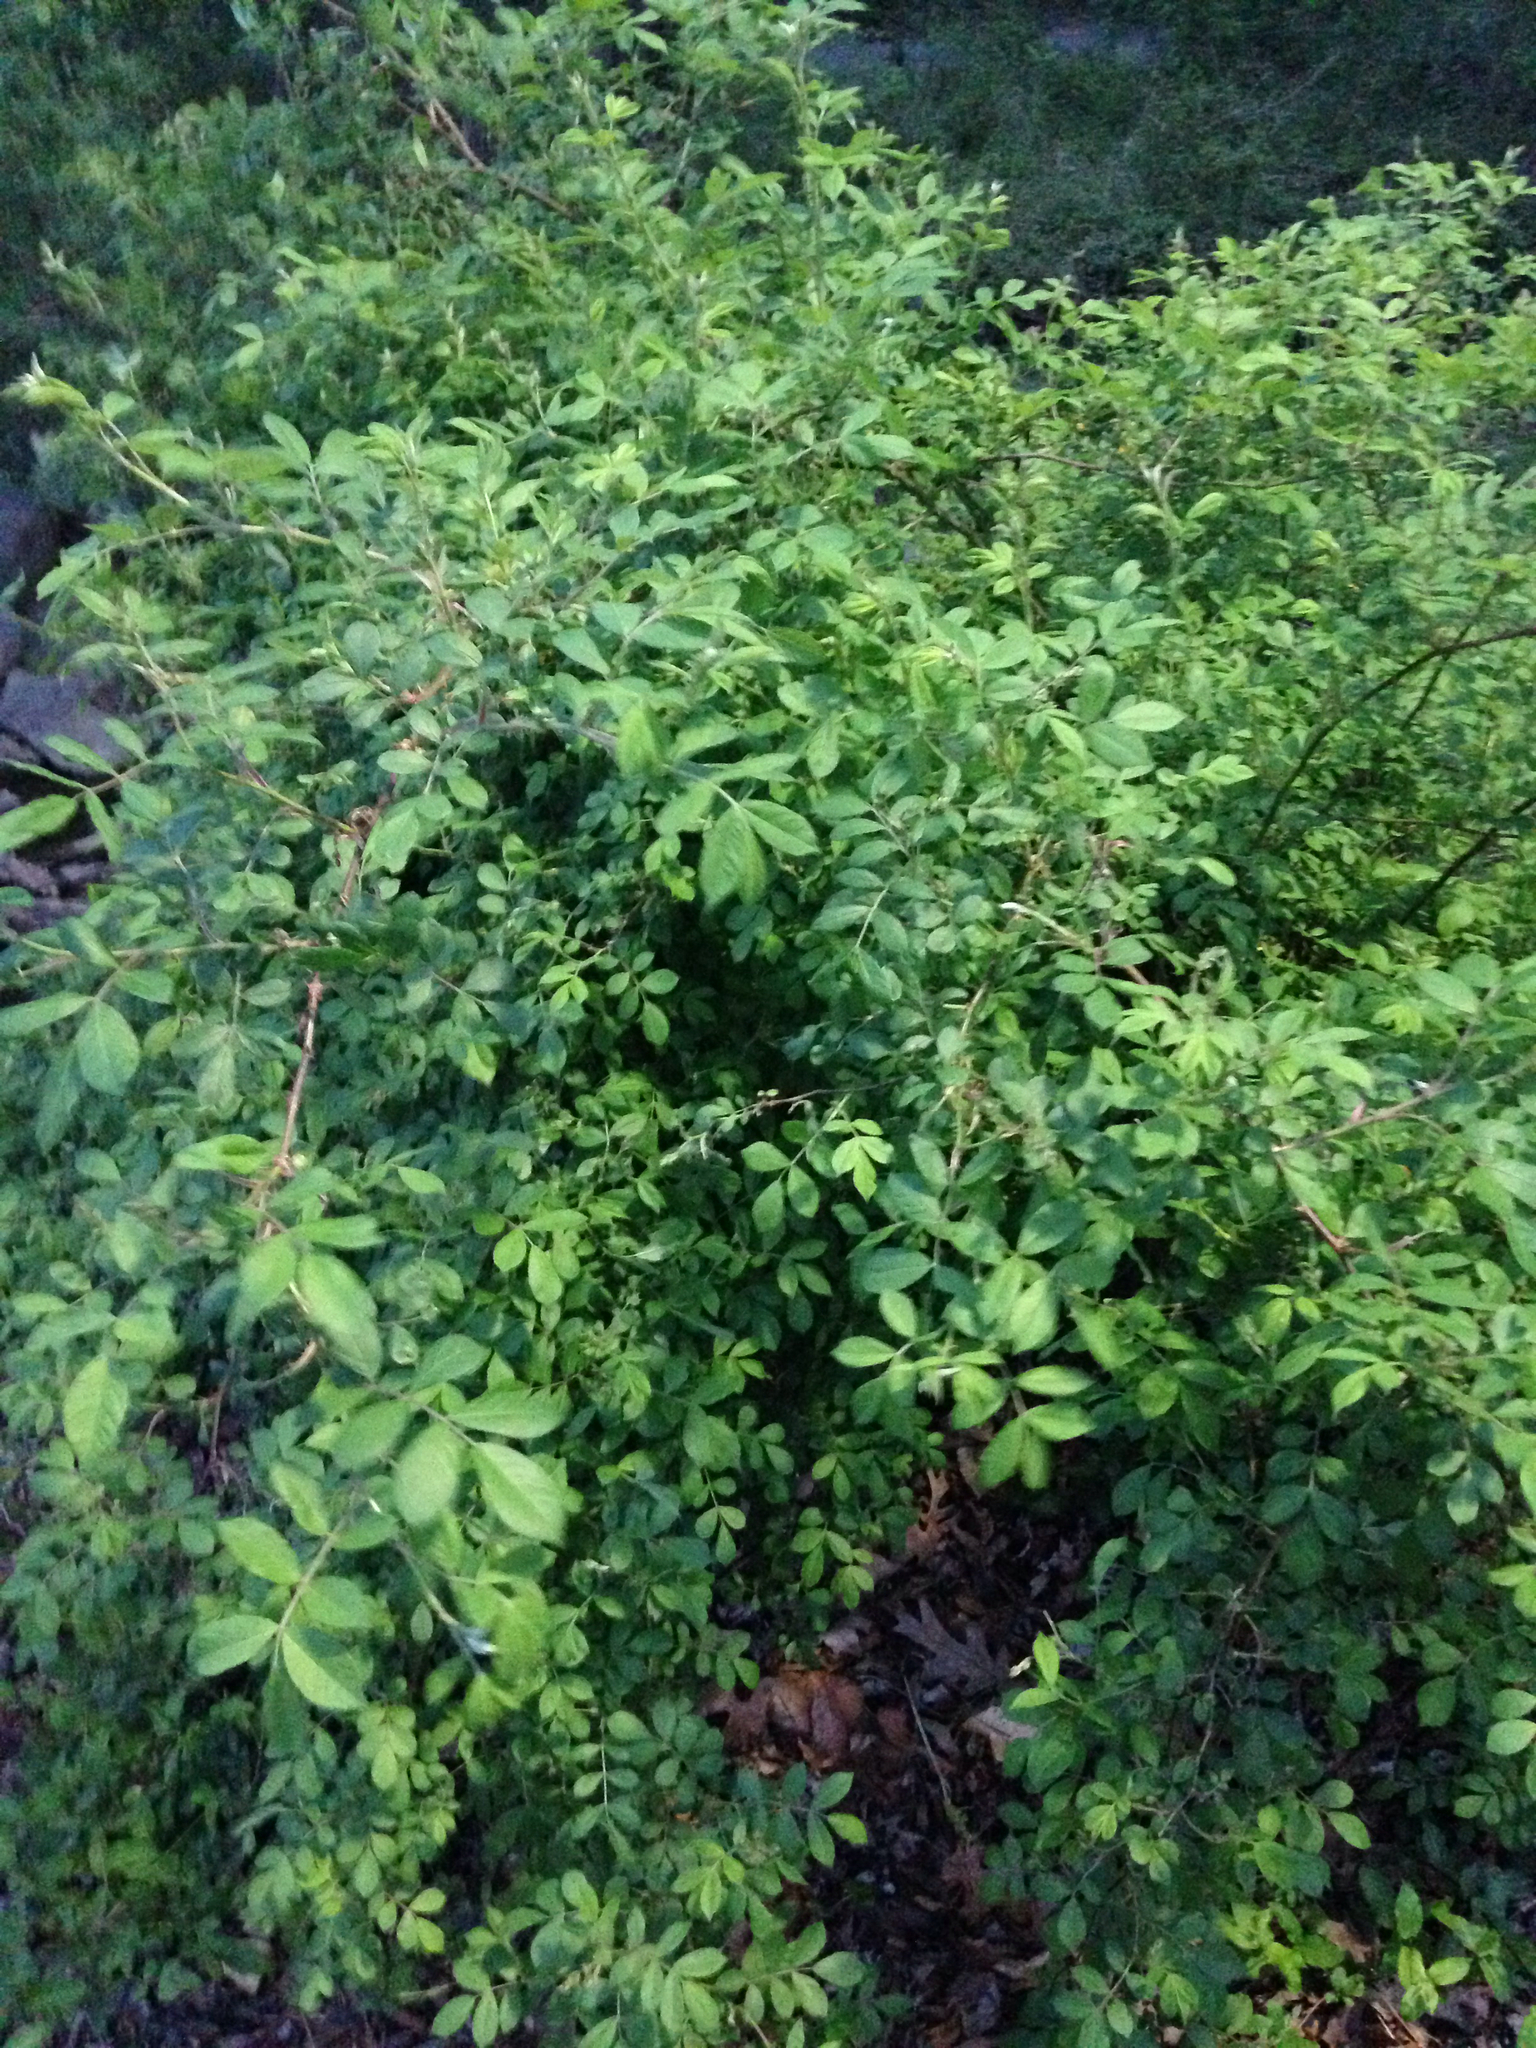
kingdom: Plantae
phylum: Tracheophyta
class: Magnoliopsida
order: Rosales
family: Rosaceae
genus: Rosa
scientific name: Rosa multiflora
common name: Multiflora rose
